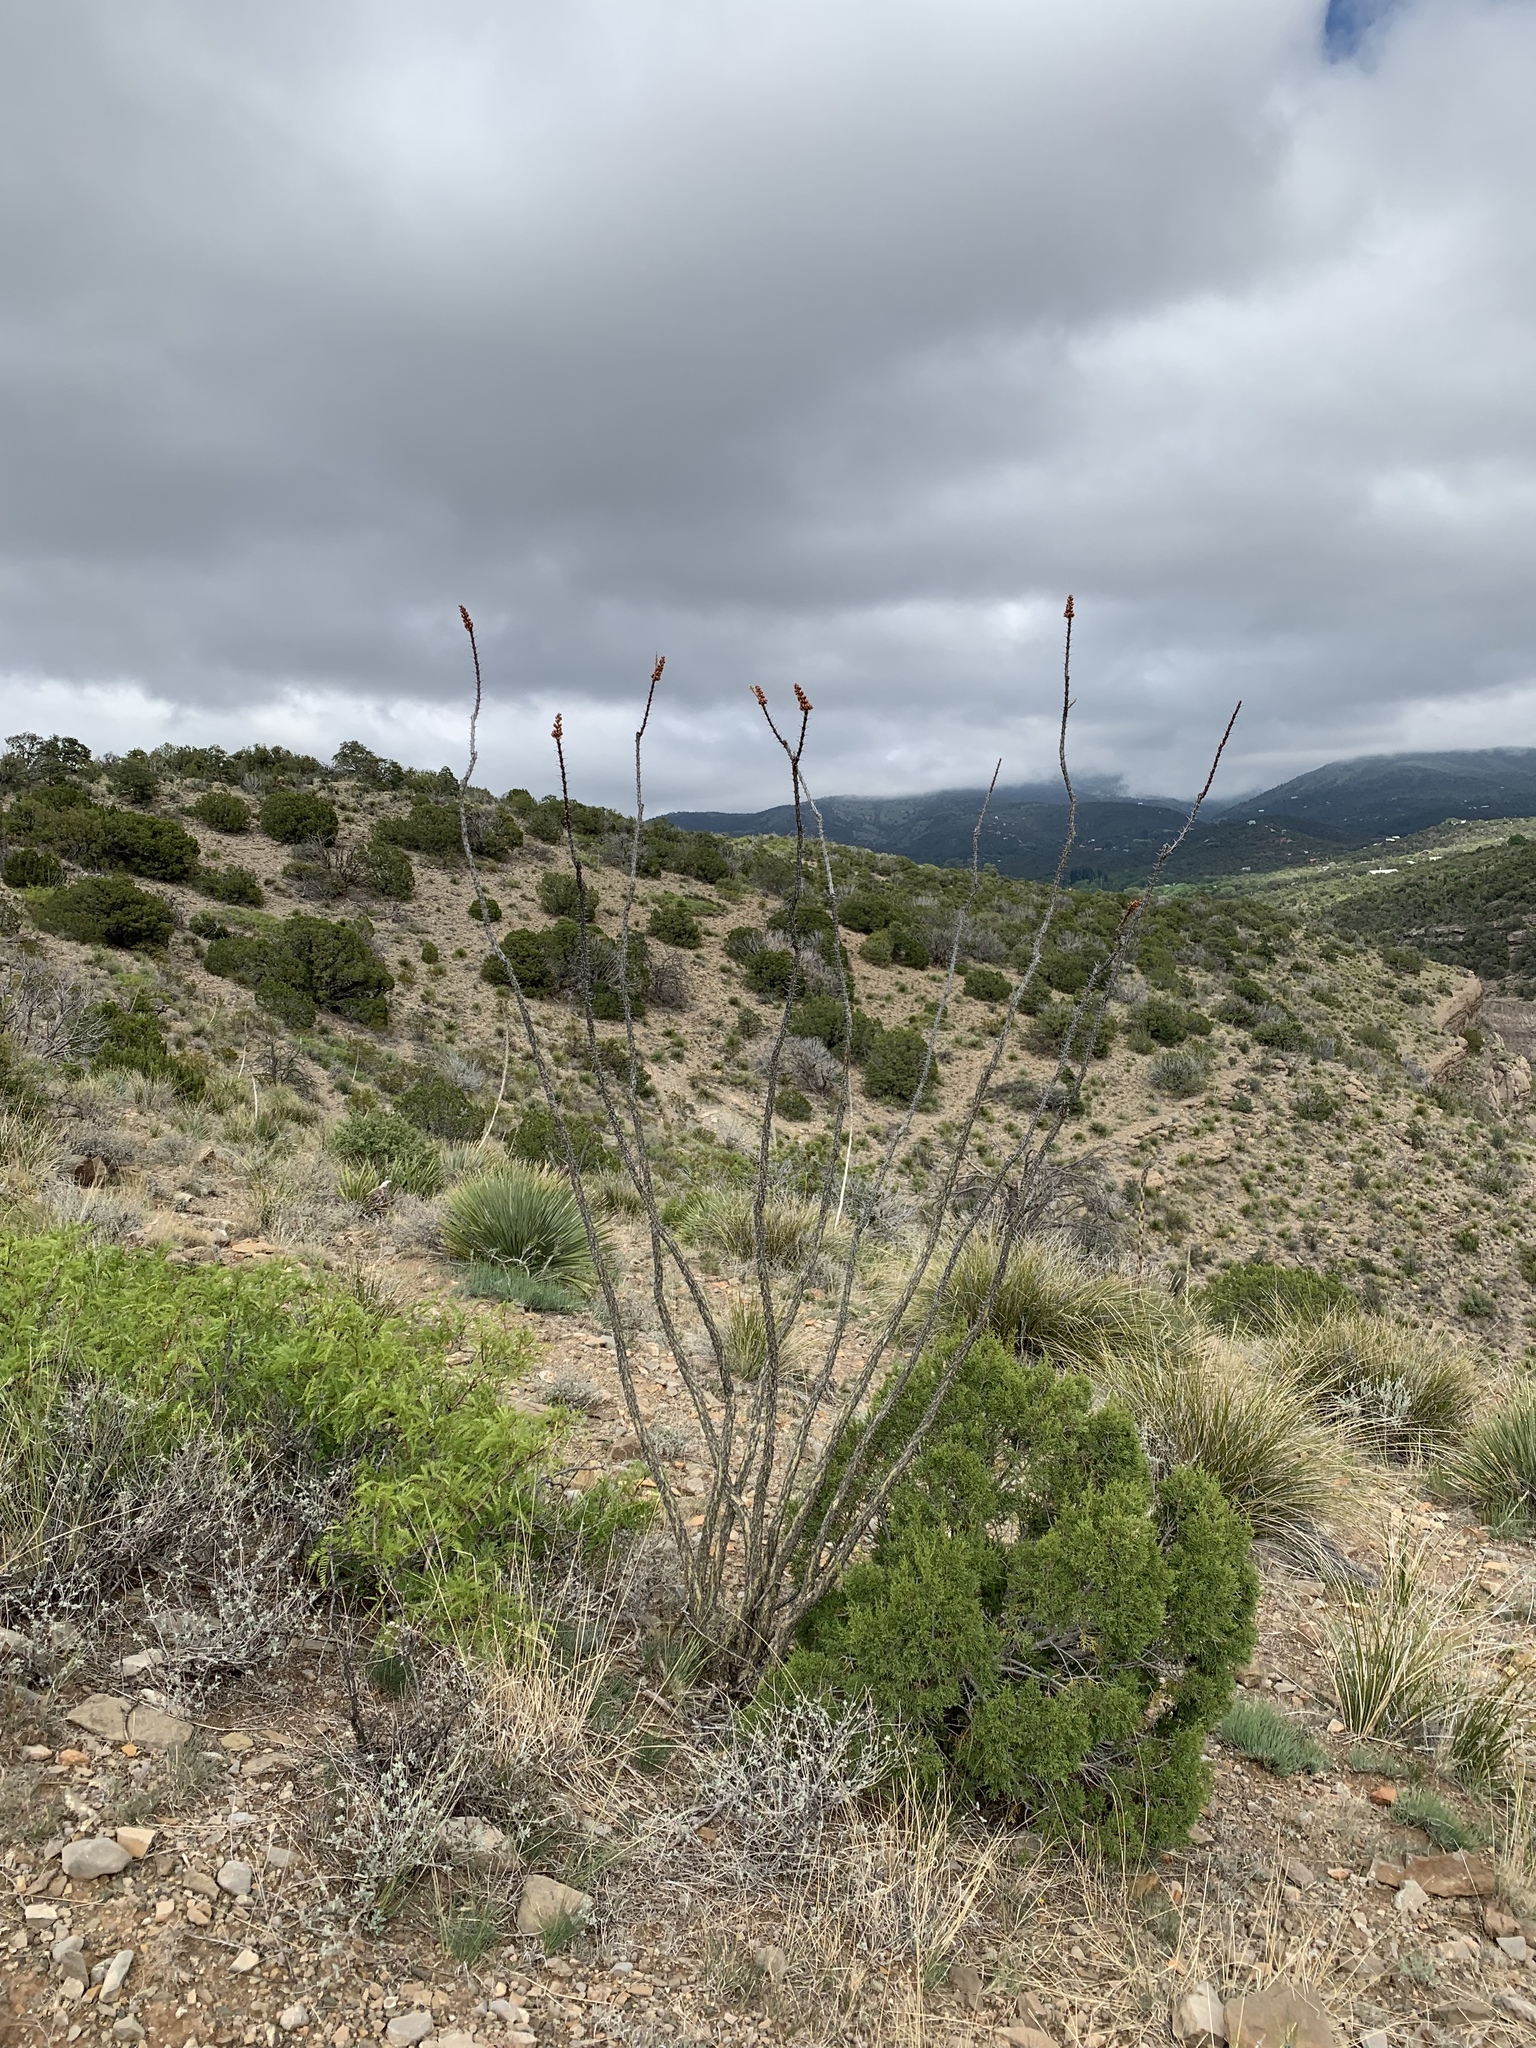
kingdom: Plantae
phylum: Tracheophyta
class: Magnoliopsida
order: Ericales
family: Fouquieriaceae
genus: Fouquieria
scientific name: Fouquieria splendens
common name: Vine-cactus
